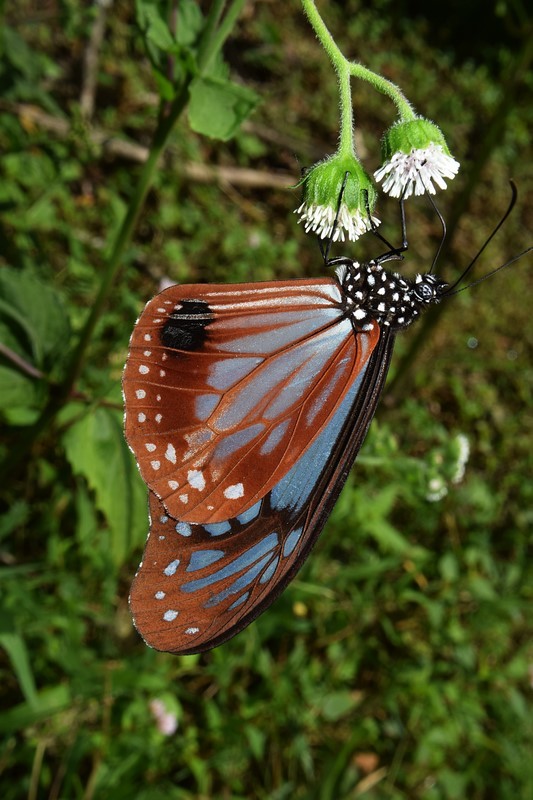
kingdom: Animalia
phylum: Arthropoda
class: Insecta
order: Lepidoptera
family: Nymphalidae
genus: Parantica
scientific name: Parantica sita
